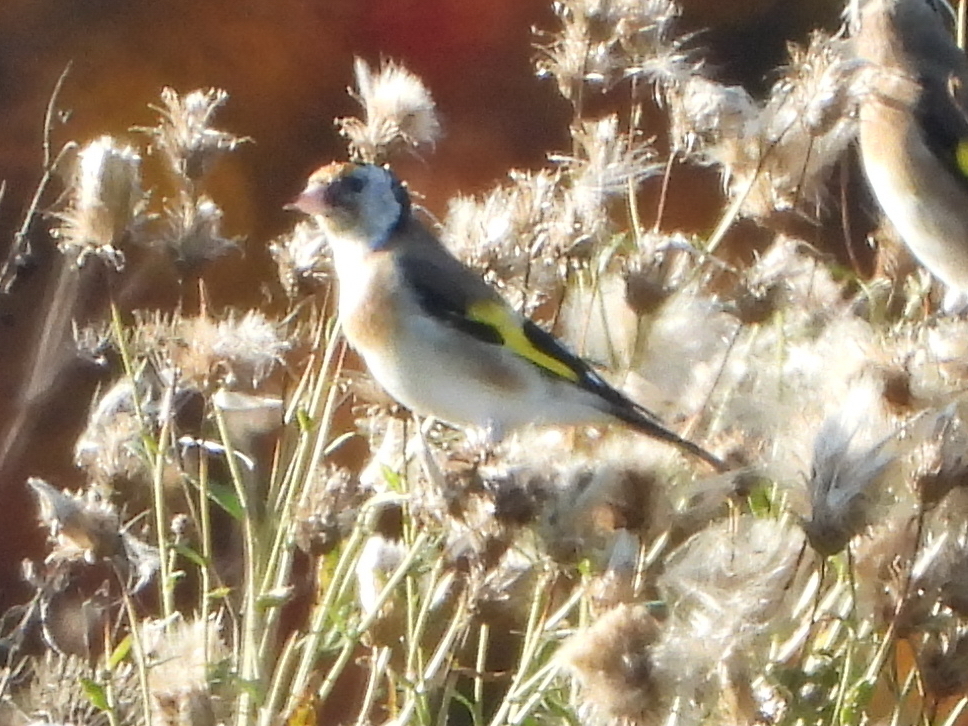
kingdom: Animalia
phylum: Chordata
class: Aves
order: Passeriformes
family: Fringillidae
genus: Carduelis
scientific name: Carduelis carduelis
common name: European goldfinch
